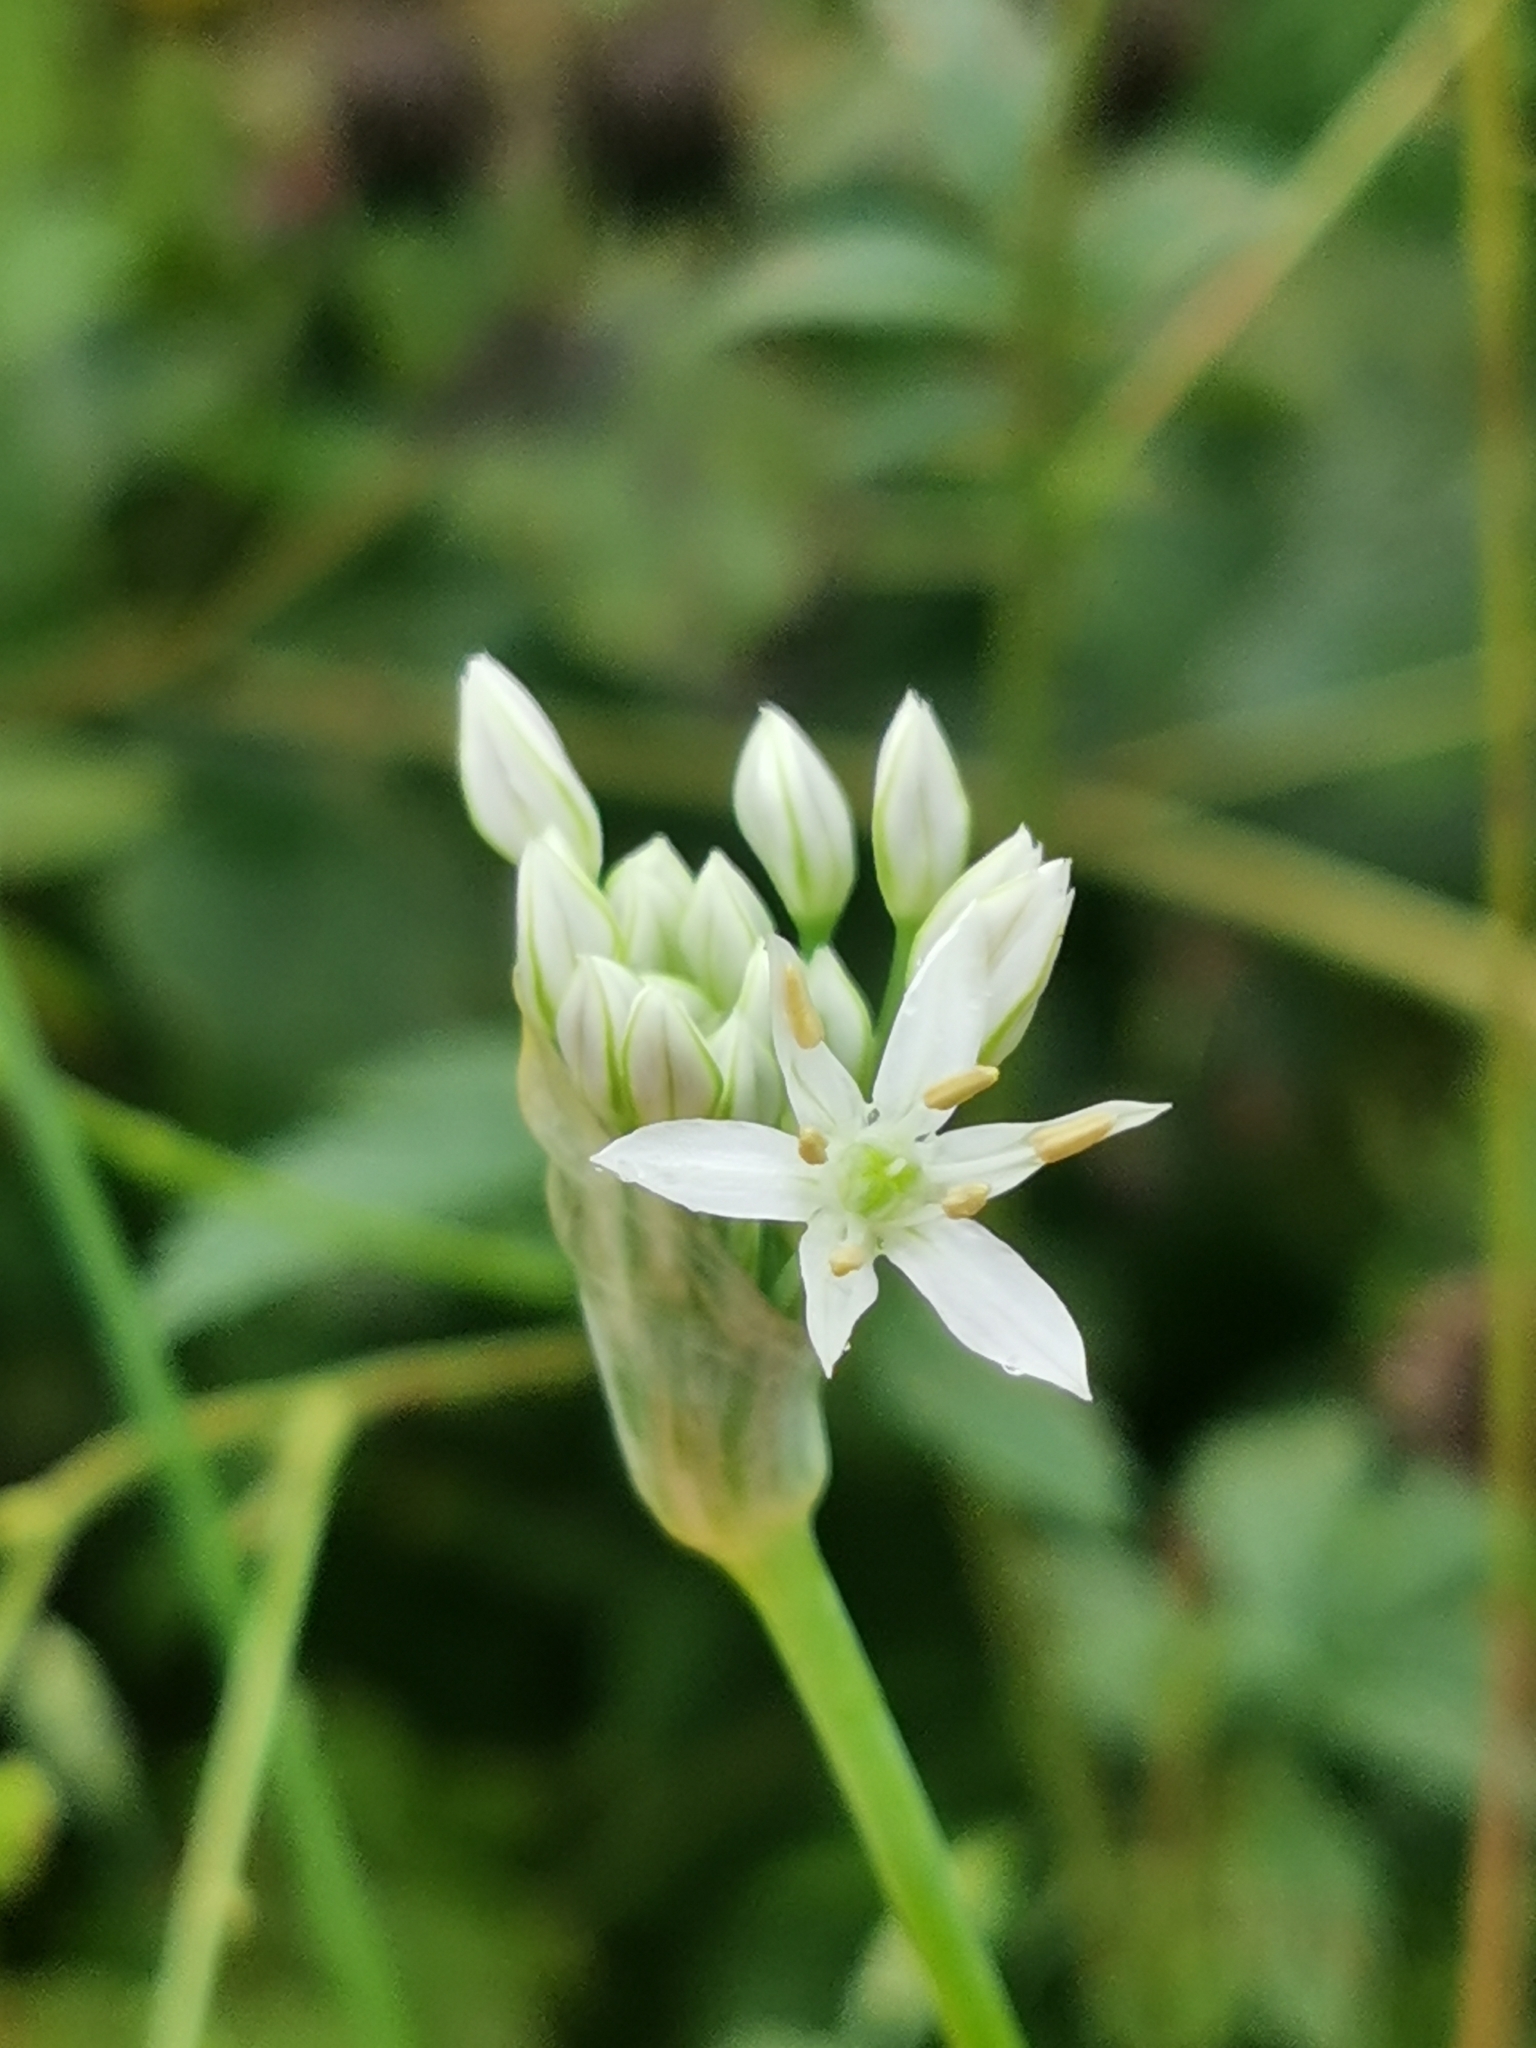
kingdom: Plantae
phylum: Tracheophyta
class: Liliopsida
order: Asparagales
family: Amaryllidaceae
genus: Allium
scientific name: Allium ramosum
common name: Fragrant garlic
